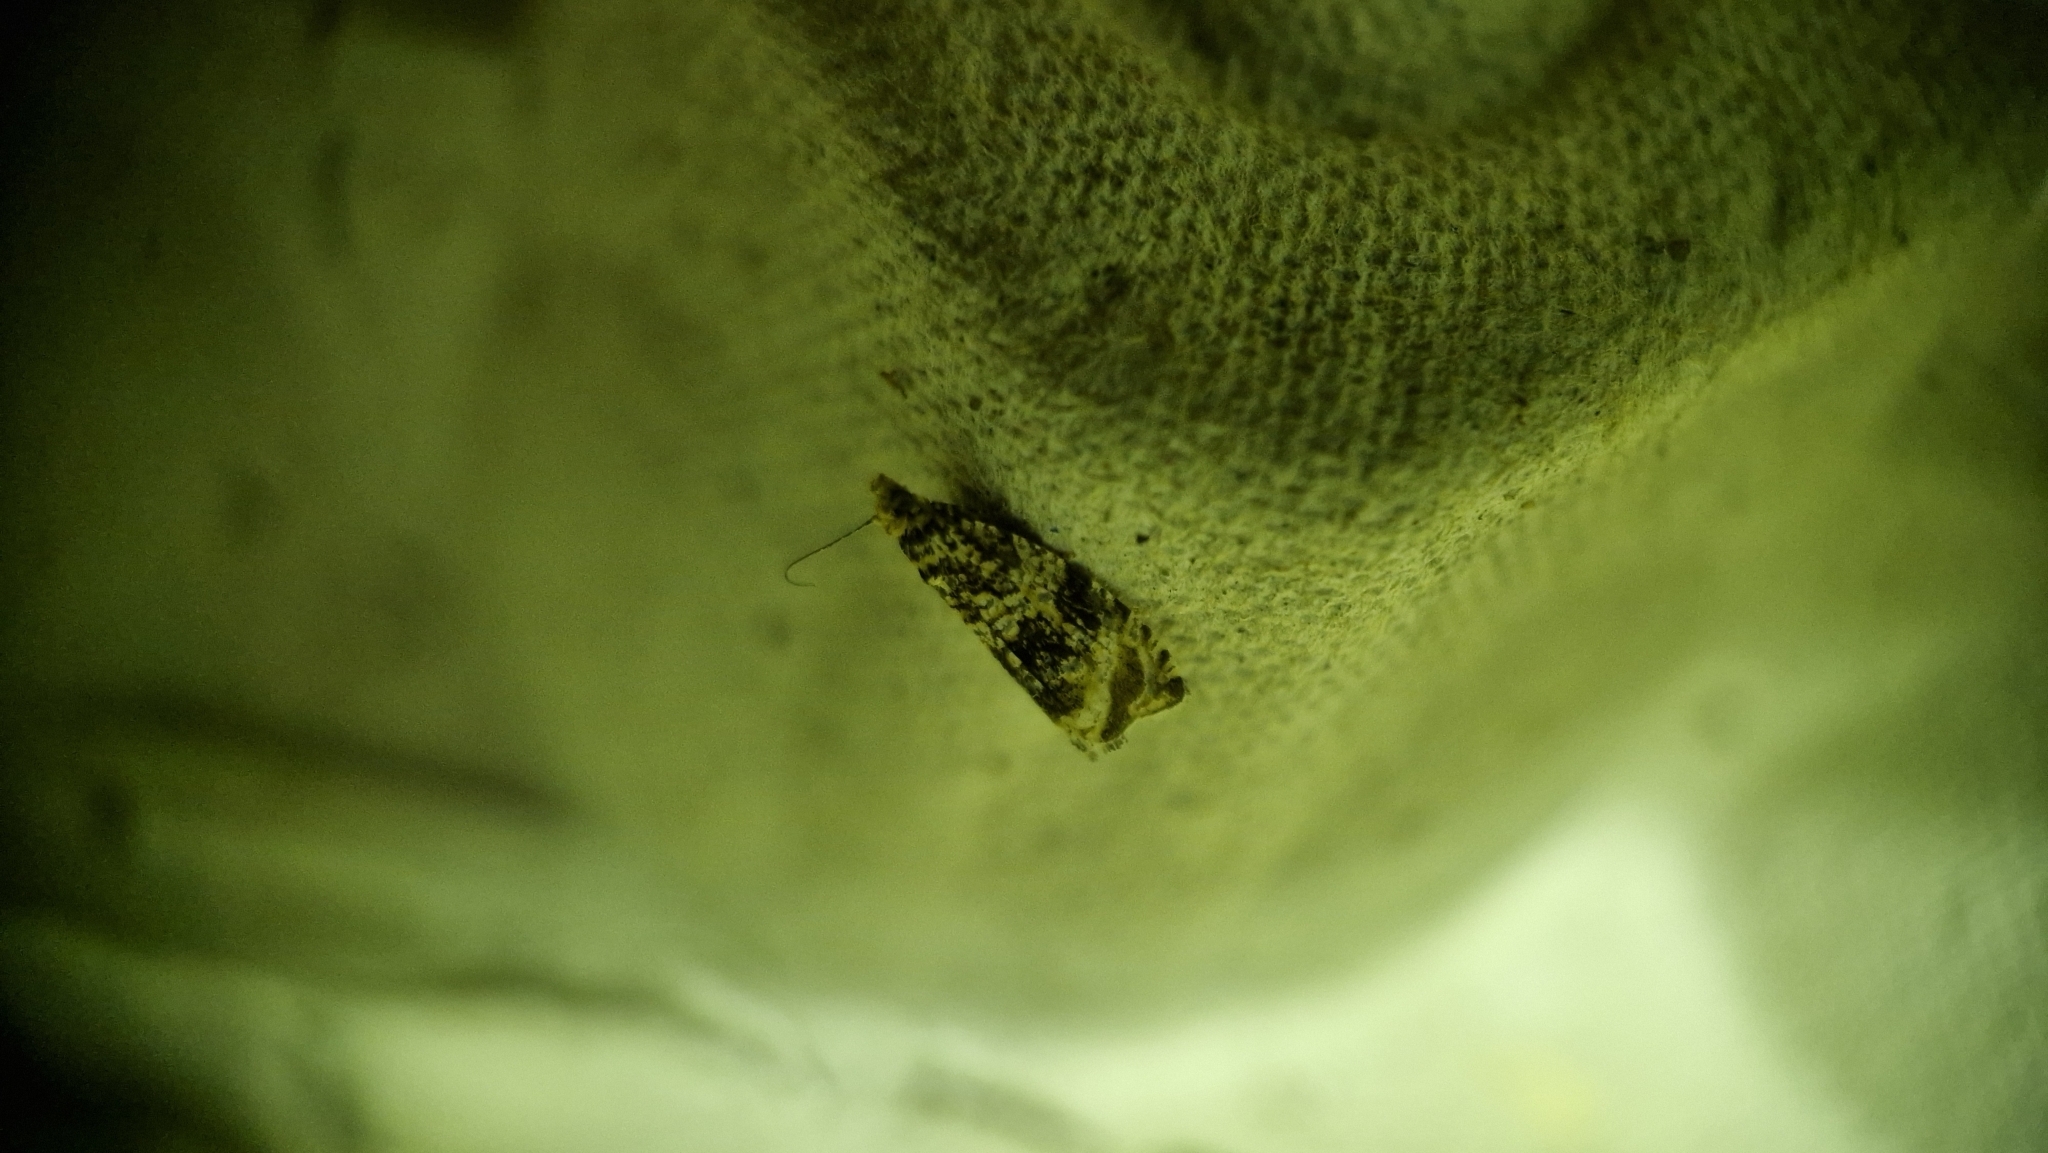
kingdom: Animalia
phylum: Arthropoda
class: Insecta
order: Lepidoptera
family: Tortricidae
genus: Syricoris
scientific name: Syricoris lacunana
